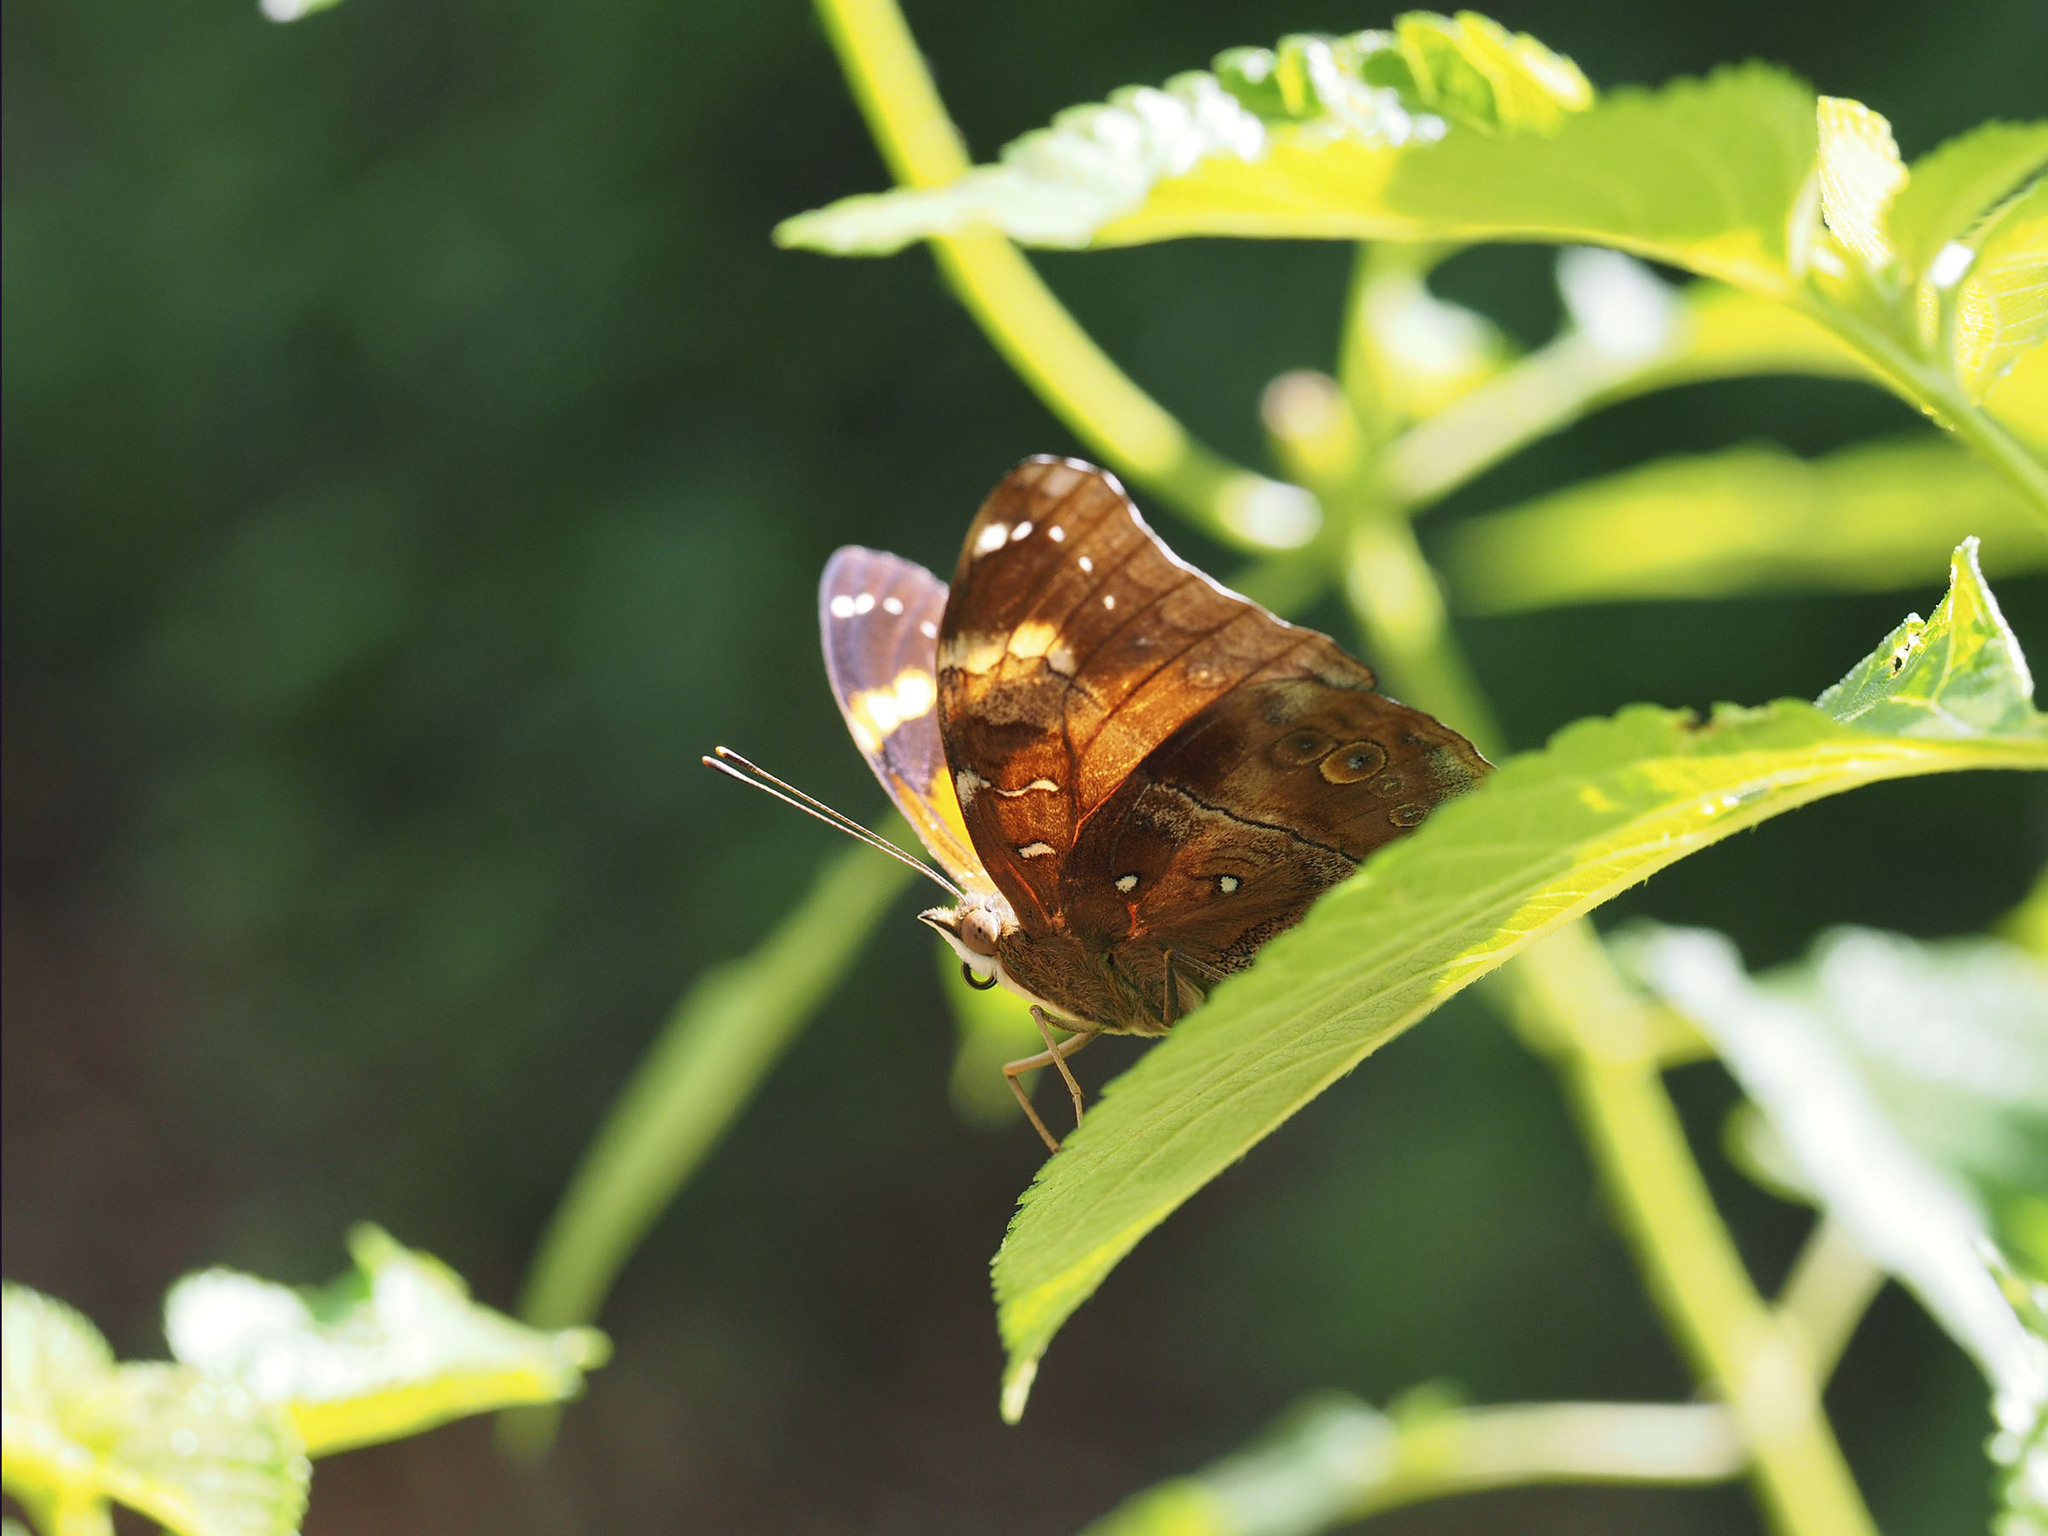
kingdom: Animalia
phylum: Arthropoda
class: Insecta
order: Lepidoptera
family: Nymphalidae
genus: Doleschallia
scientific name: Doleschallia bisaltide
